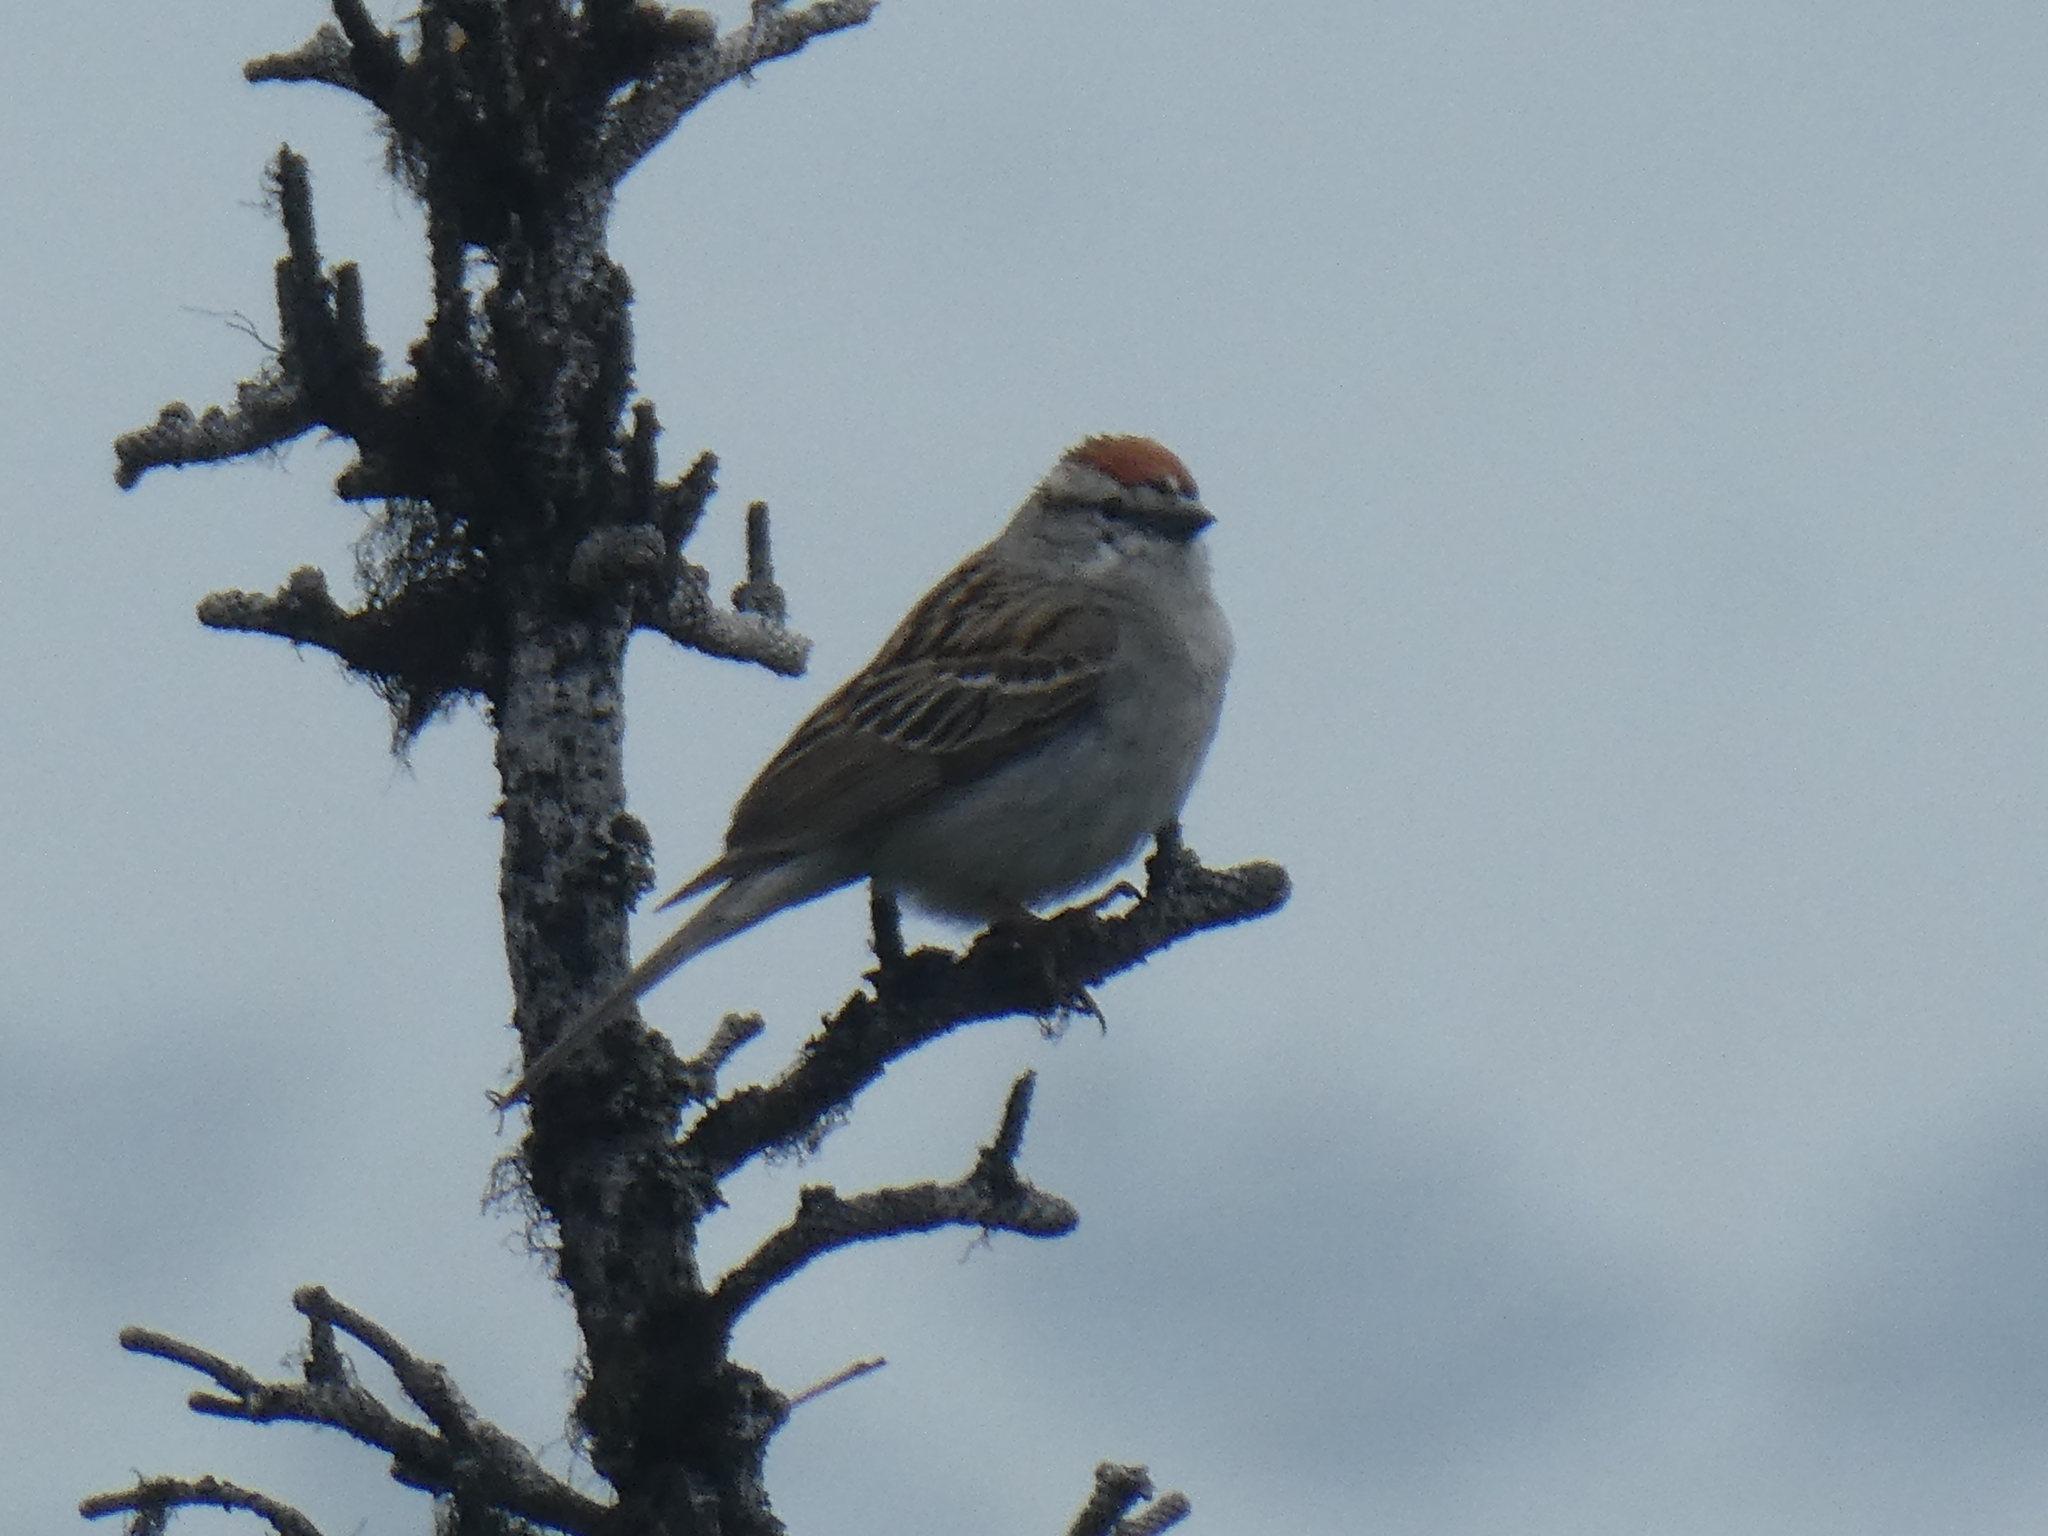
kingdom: Animalia
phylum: Chordata
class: Aves
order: Passeriformes
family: Passerellidae
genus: Spizella
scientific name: Spizella passerina
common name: Chipping sparrow
